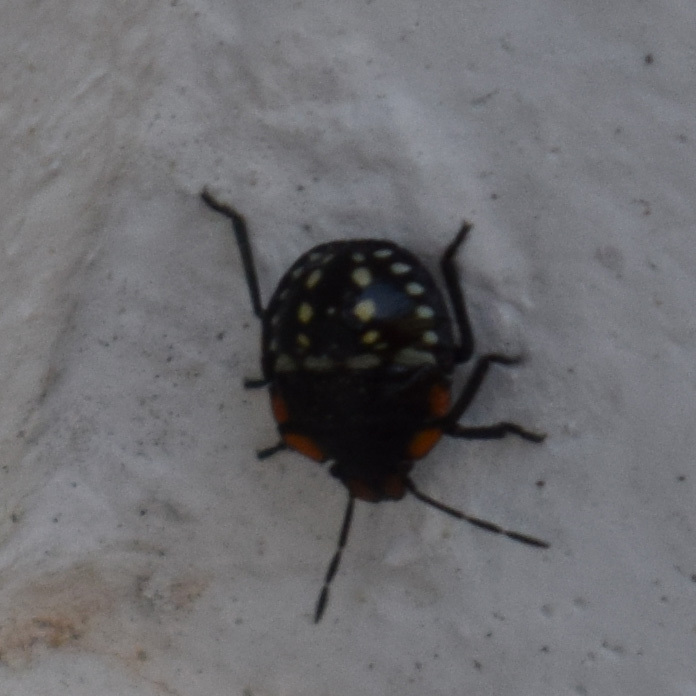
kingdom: Animalia
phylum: Arthropoda
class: Insecta
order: Hemiptera
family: Pentatomidae
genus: Nezara
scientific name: Nezara viridula
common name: Southern green stink bug
